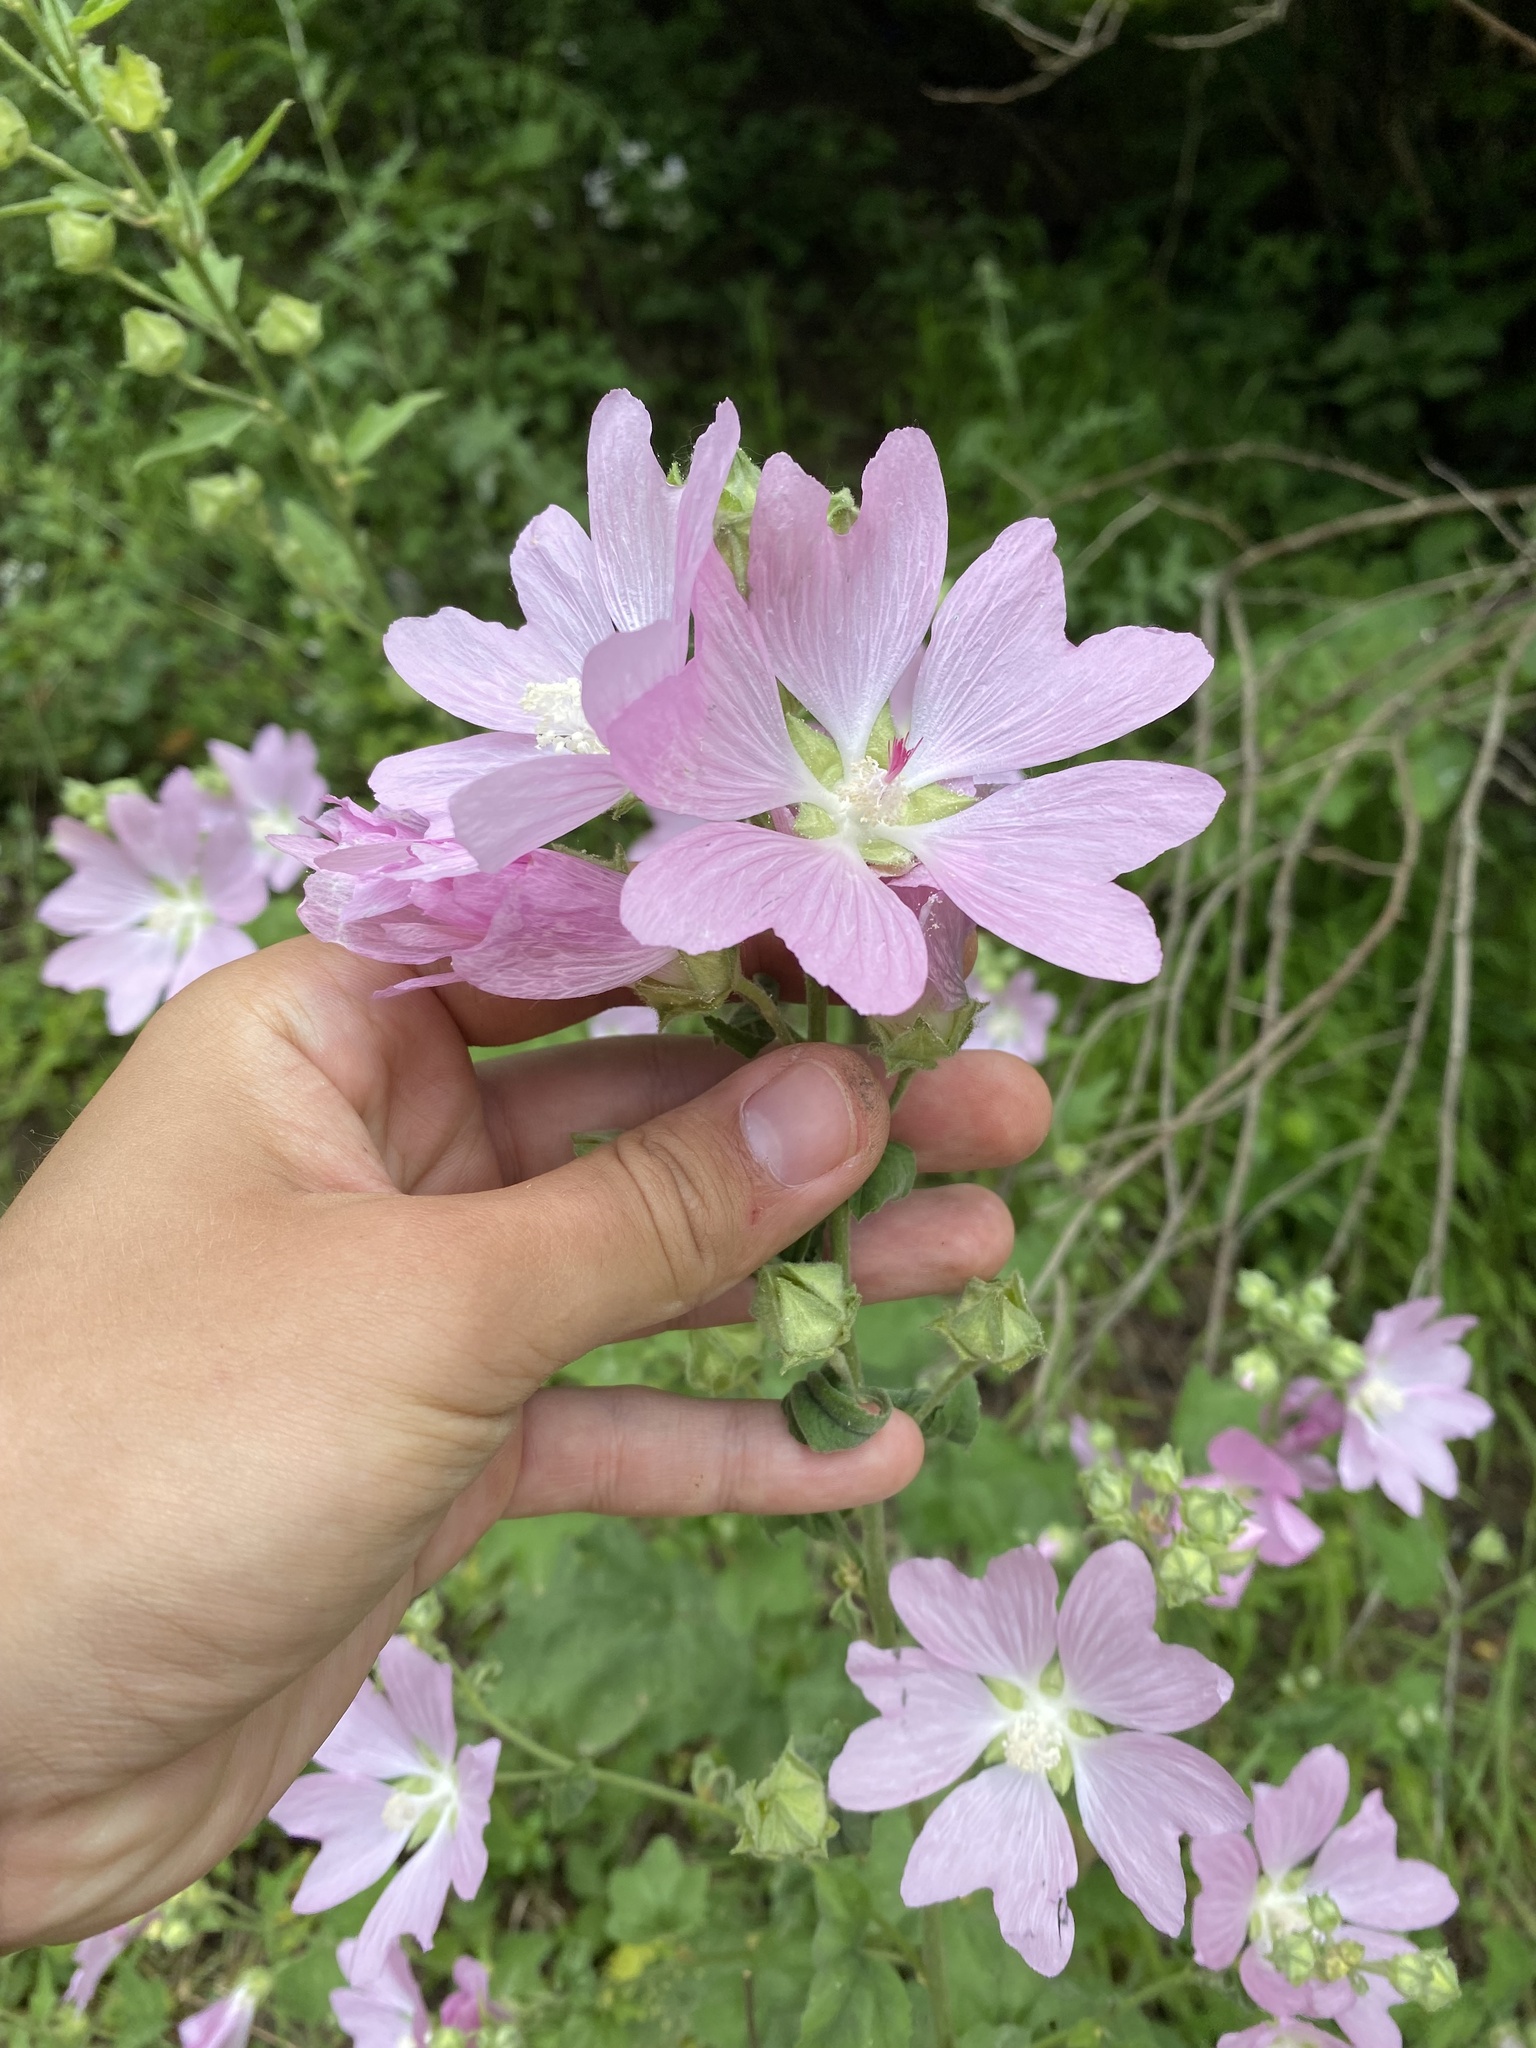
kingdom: Plantae
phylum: Tracheophyta
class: Magnoliopsida
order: Malvales
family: Malvaceae
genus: Malva
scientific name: Malva thuringiaca
